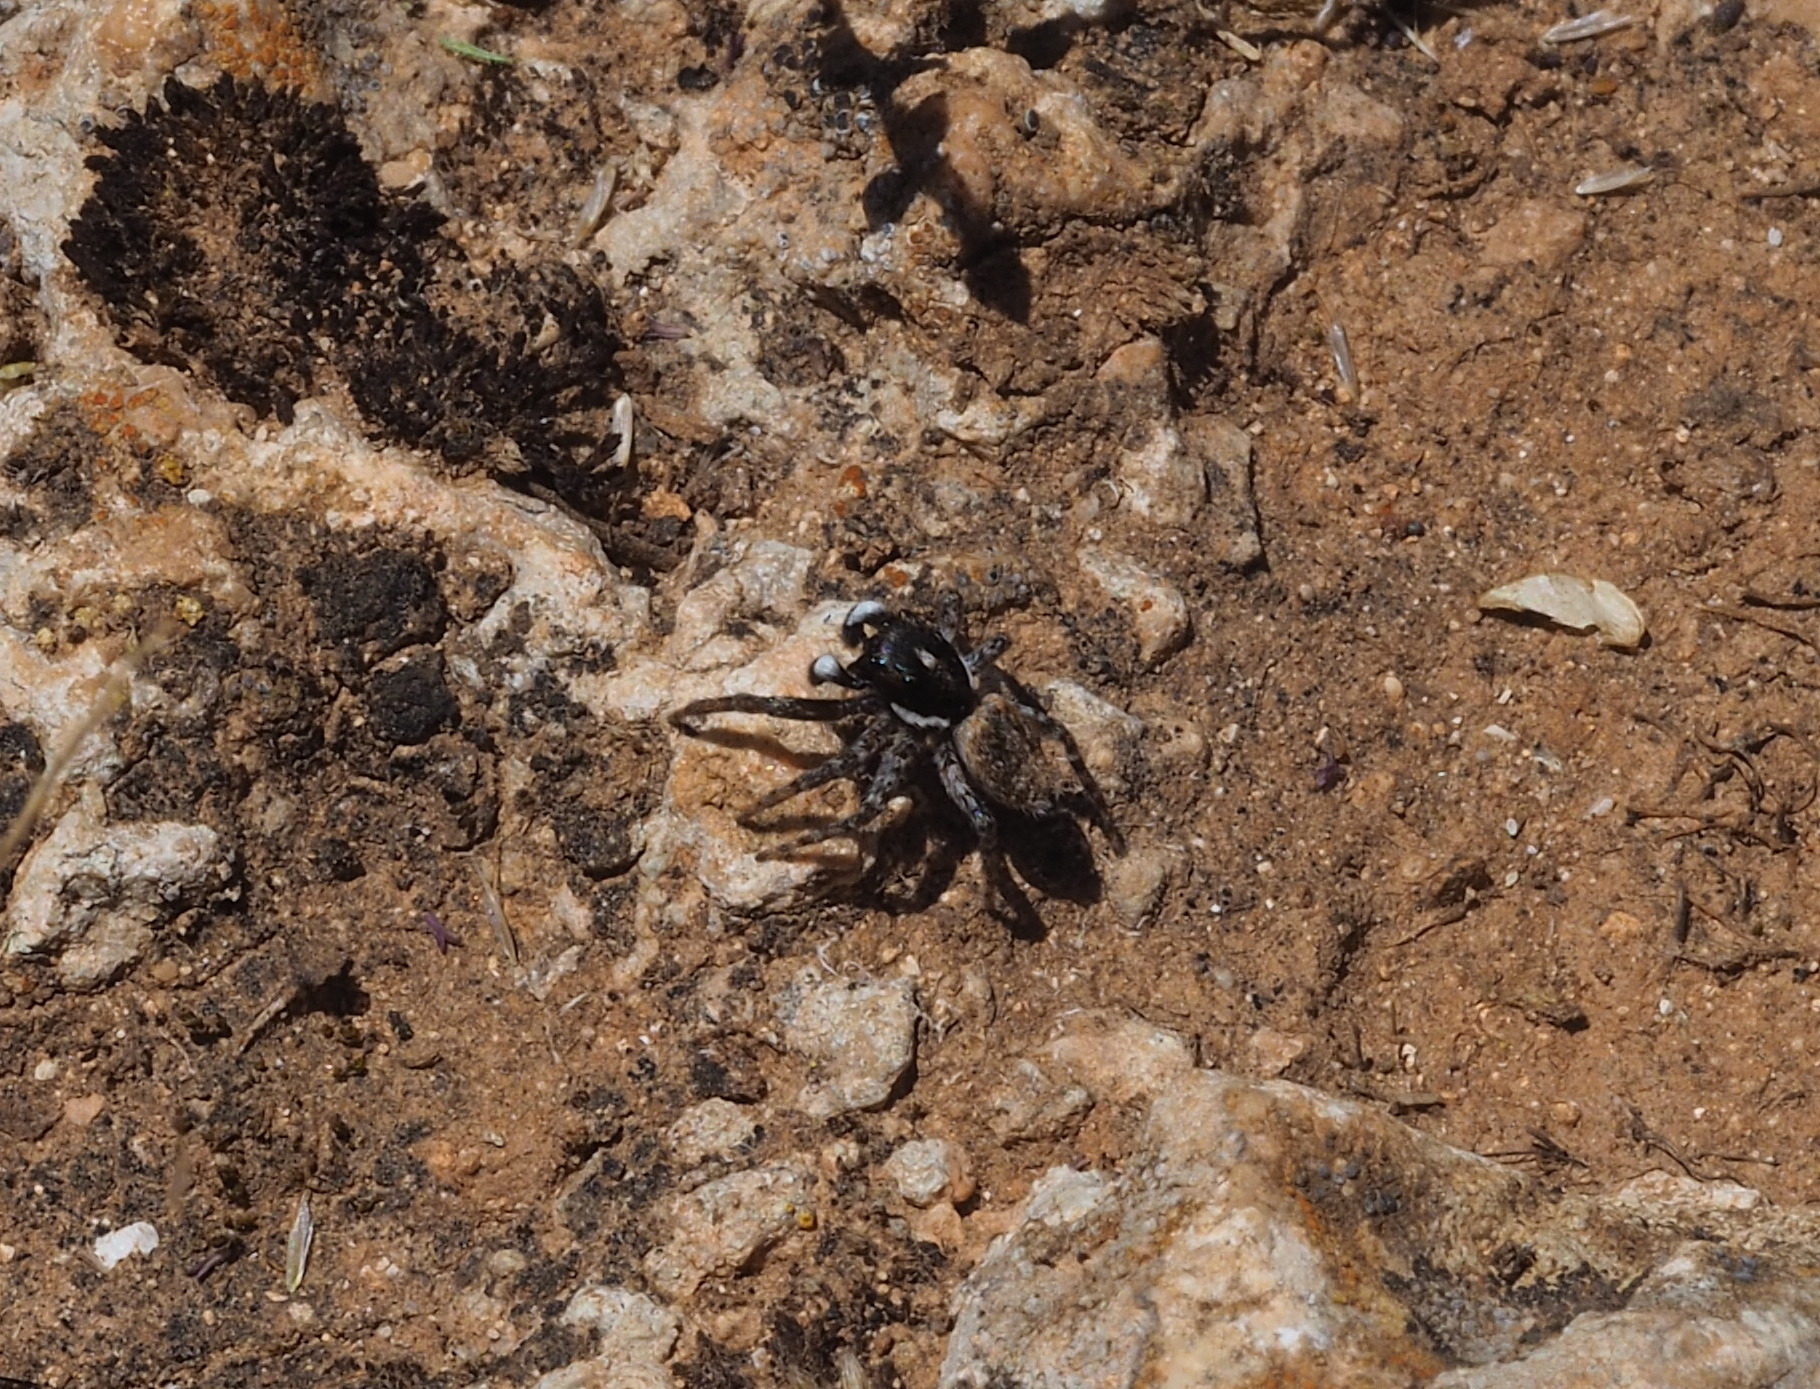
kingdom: Animalia
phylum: Arthropoda
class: Arachnida
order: Araneae
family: Salticidae
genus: Menemerus
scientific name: Menemerus semilimbatus
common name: Jumping spider
